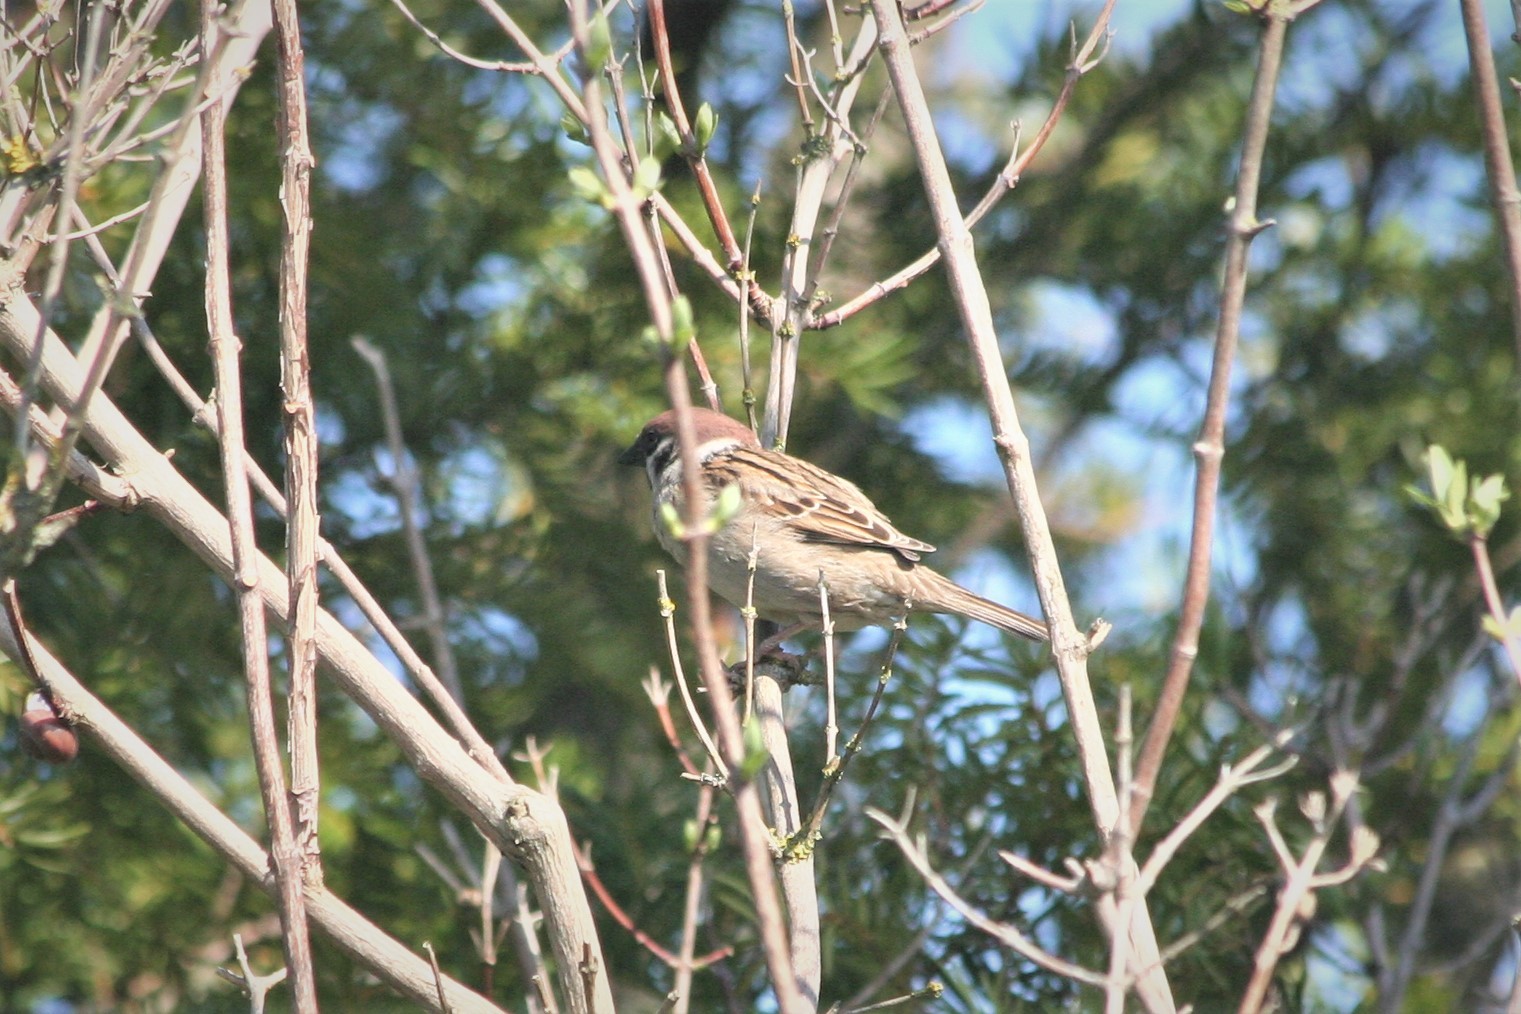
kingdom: Animalia
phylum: Chordata
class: Aves
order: Passeriformes
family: Passeridae
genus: Passer
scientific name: Passer montanus
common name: Eurasian tree sparrow
